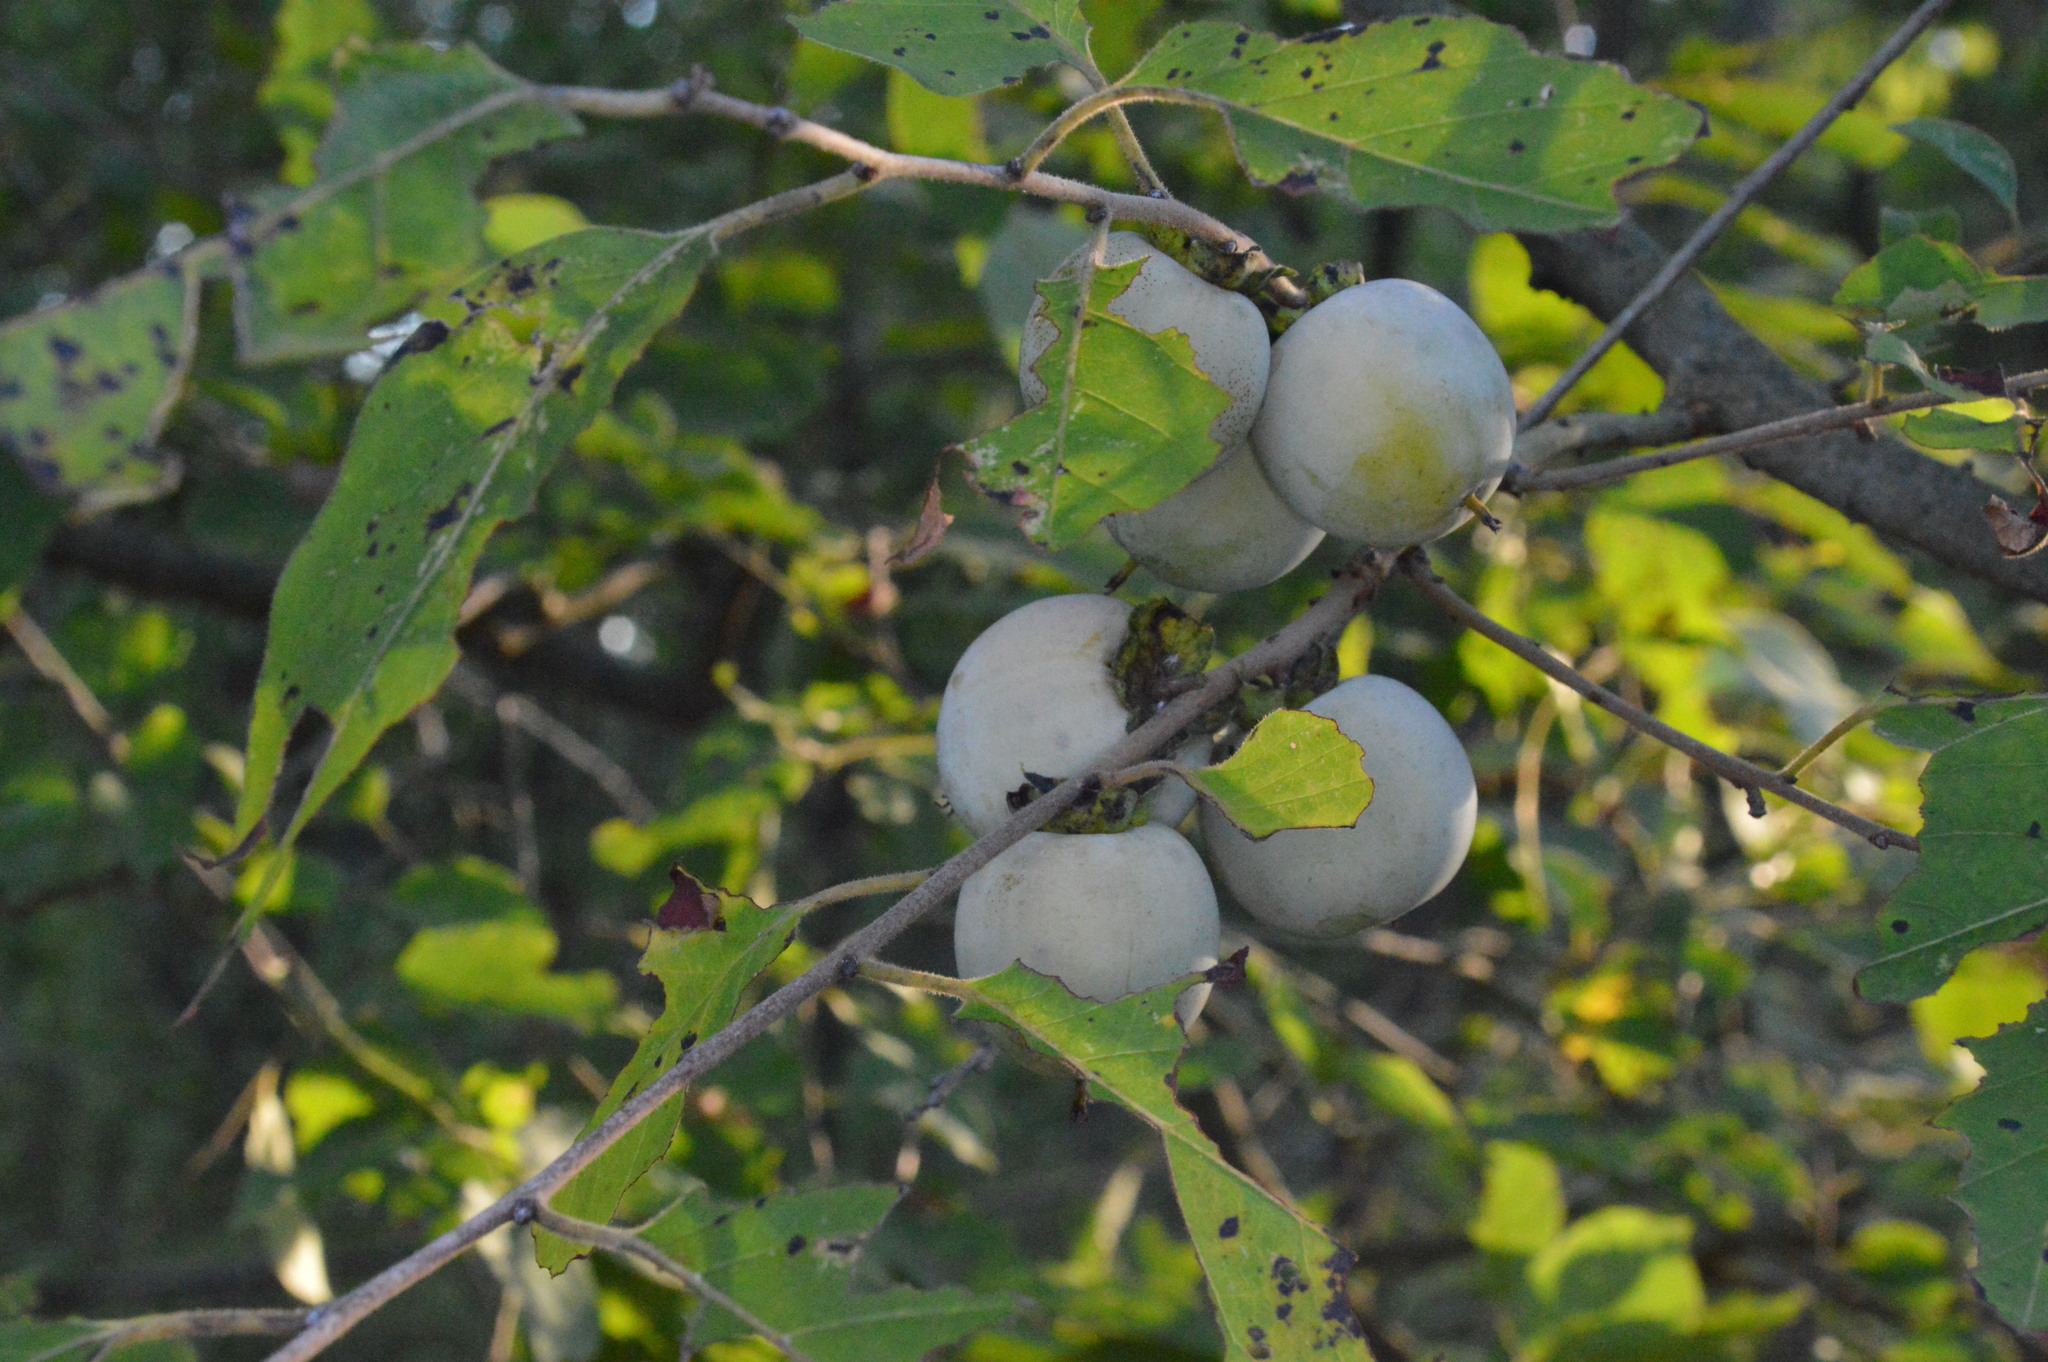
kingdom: Plantae
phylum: Tracheophyta
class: Magnoliopsida
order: Ericales
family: Ebenaceae
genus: Diospyros
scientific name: Diospyros virginiana
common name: Persimmon
